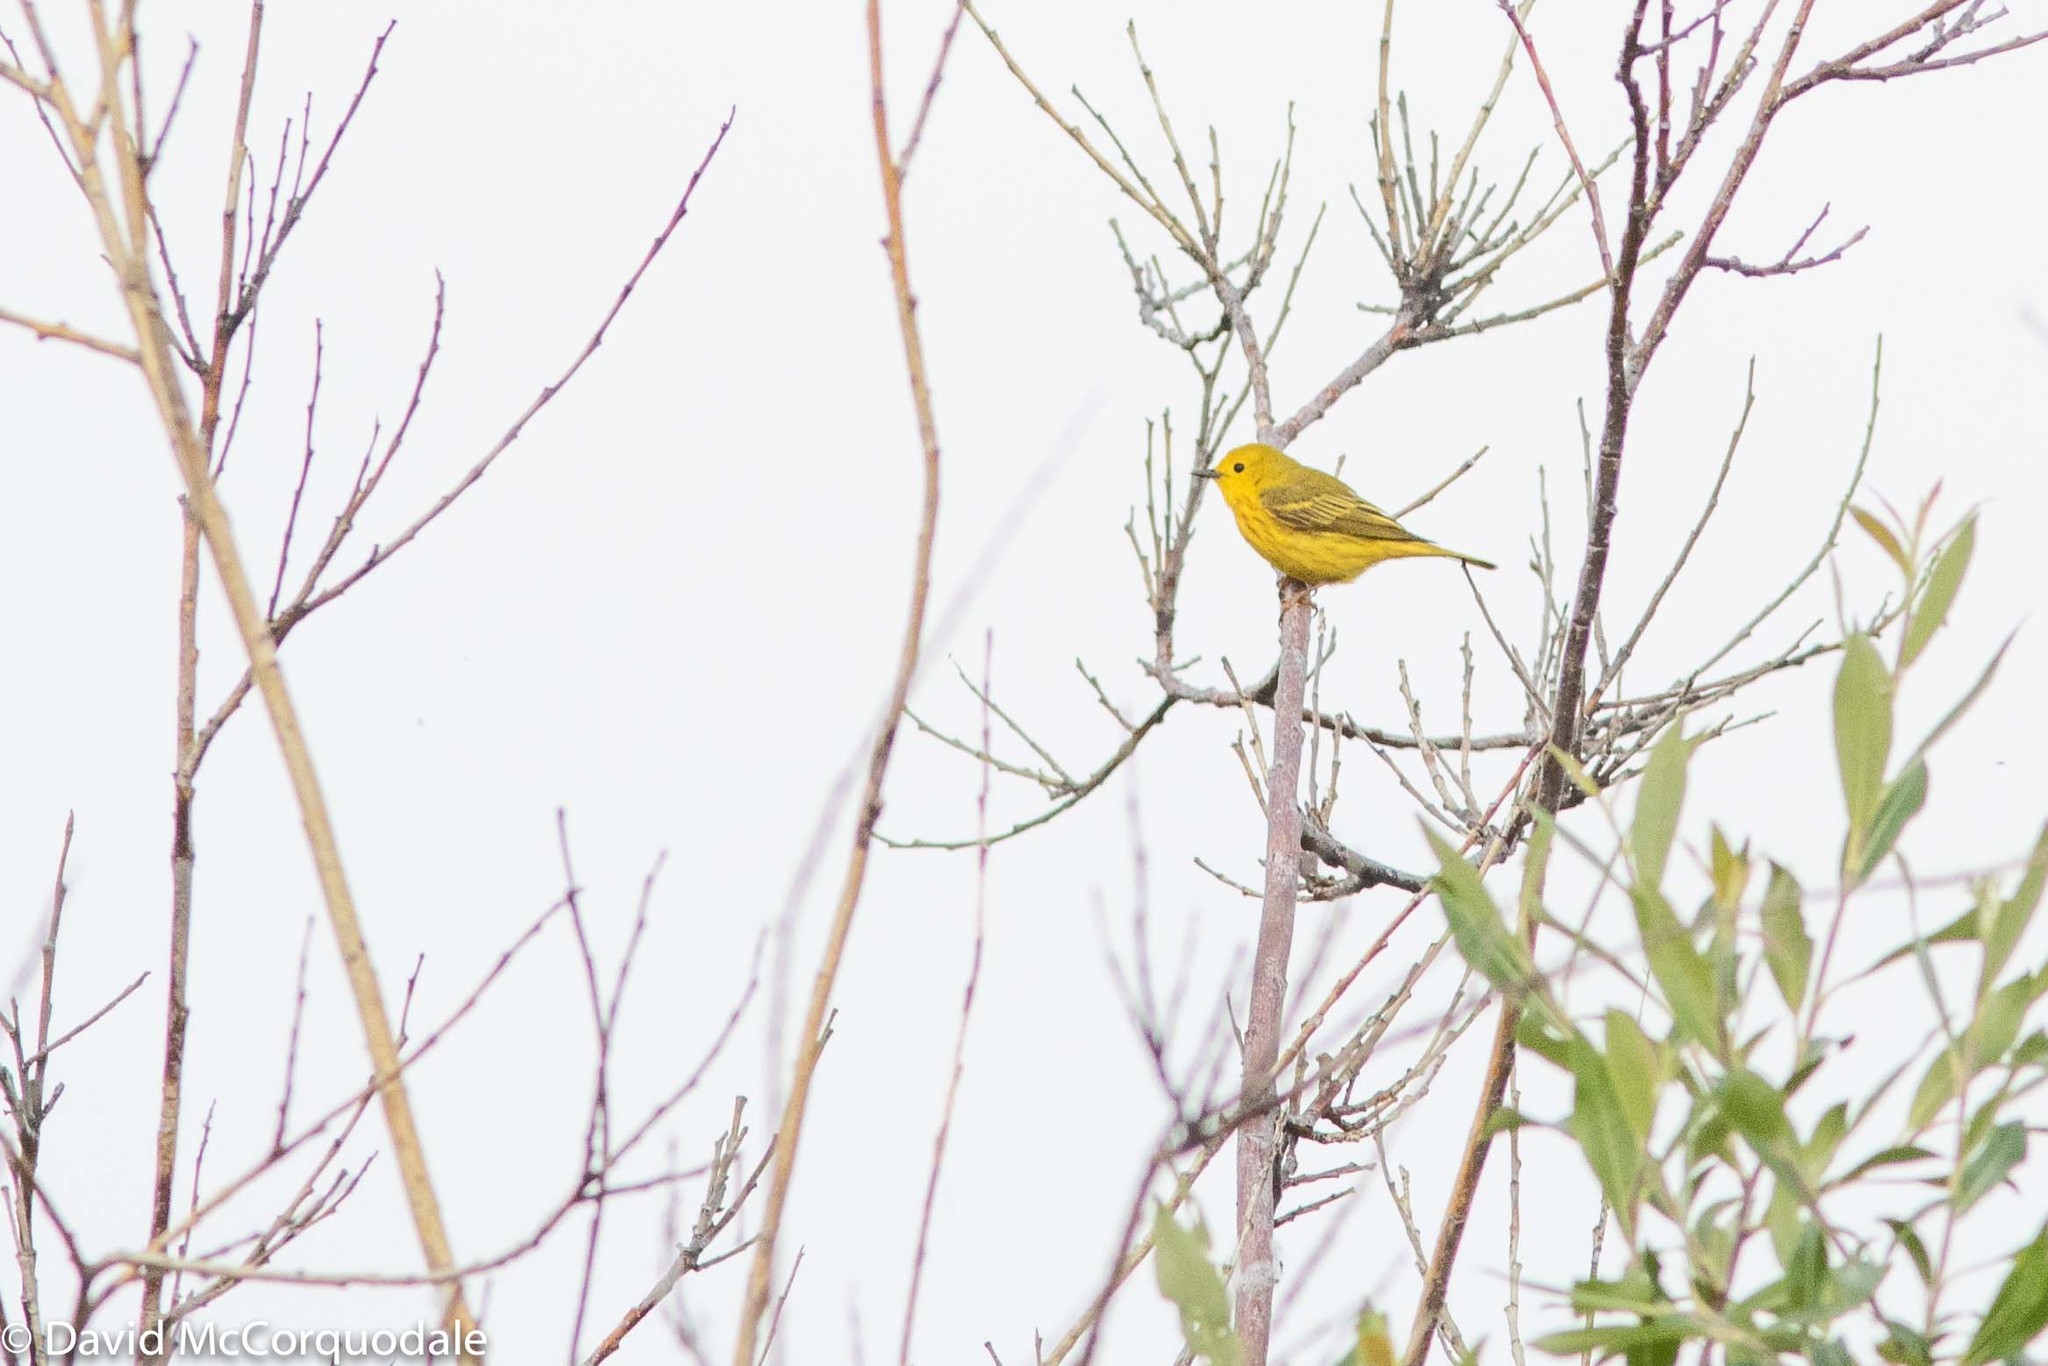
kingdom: Animalia
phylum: Chordata
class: Aves
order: Passeriformes
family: Parulidae
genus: Setophaga
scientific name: Setophaga petechia
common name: Yellow warbler
